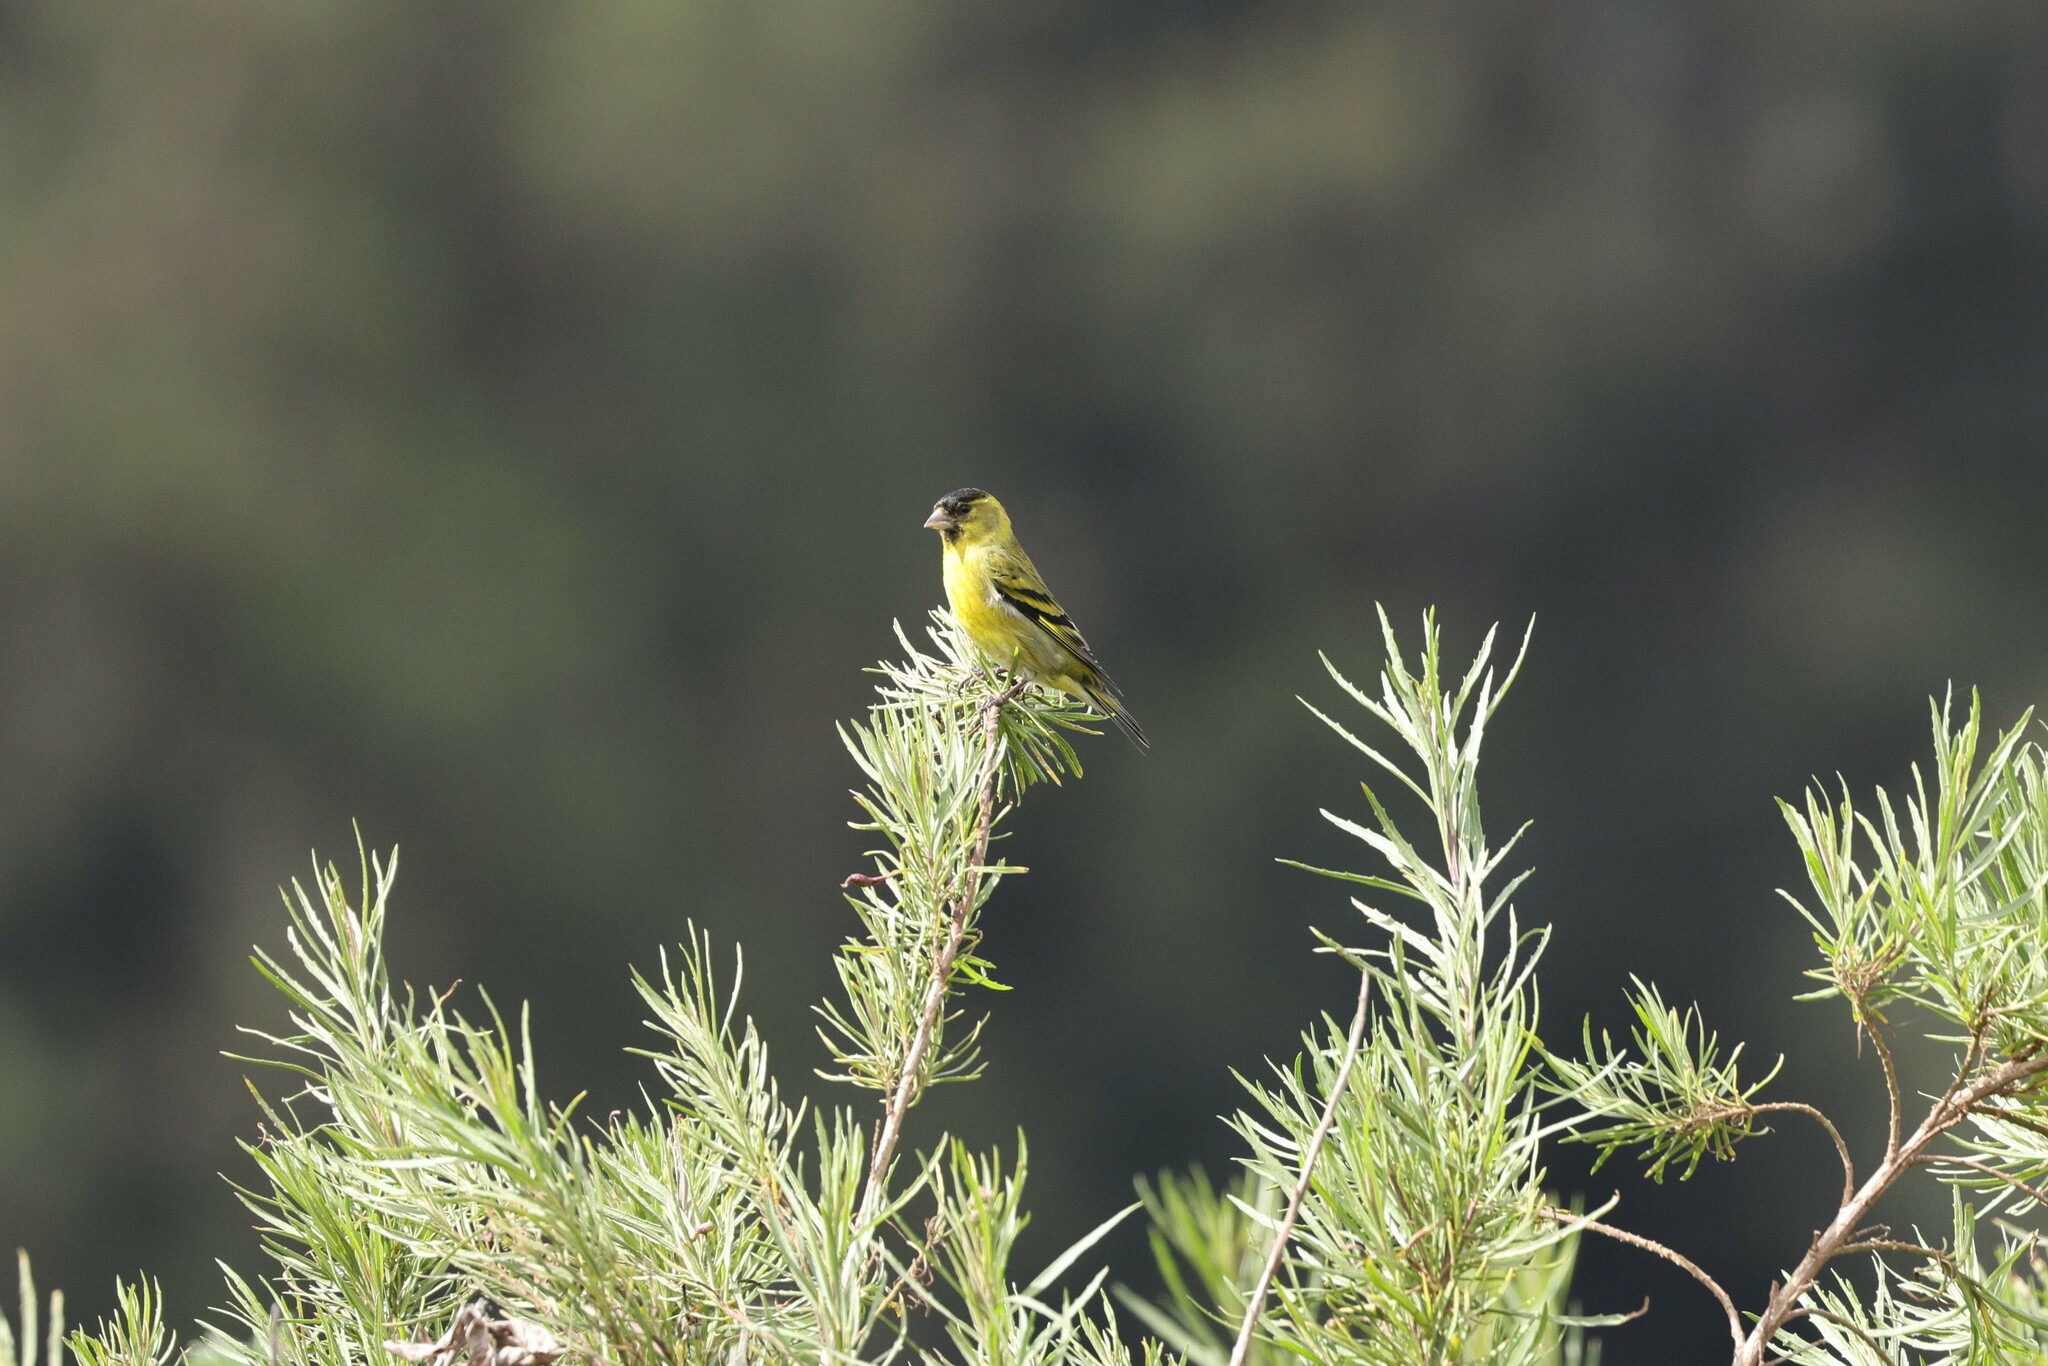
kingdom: Animalia
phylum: Chordata
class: Aves
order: Passeriformes
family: Fringillidae
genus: Spinus
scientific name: Spinus barbatus
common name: Black-chinned siskin
